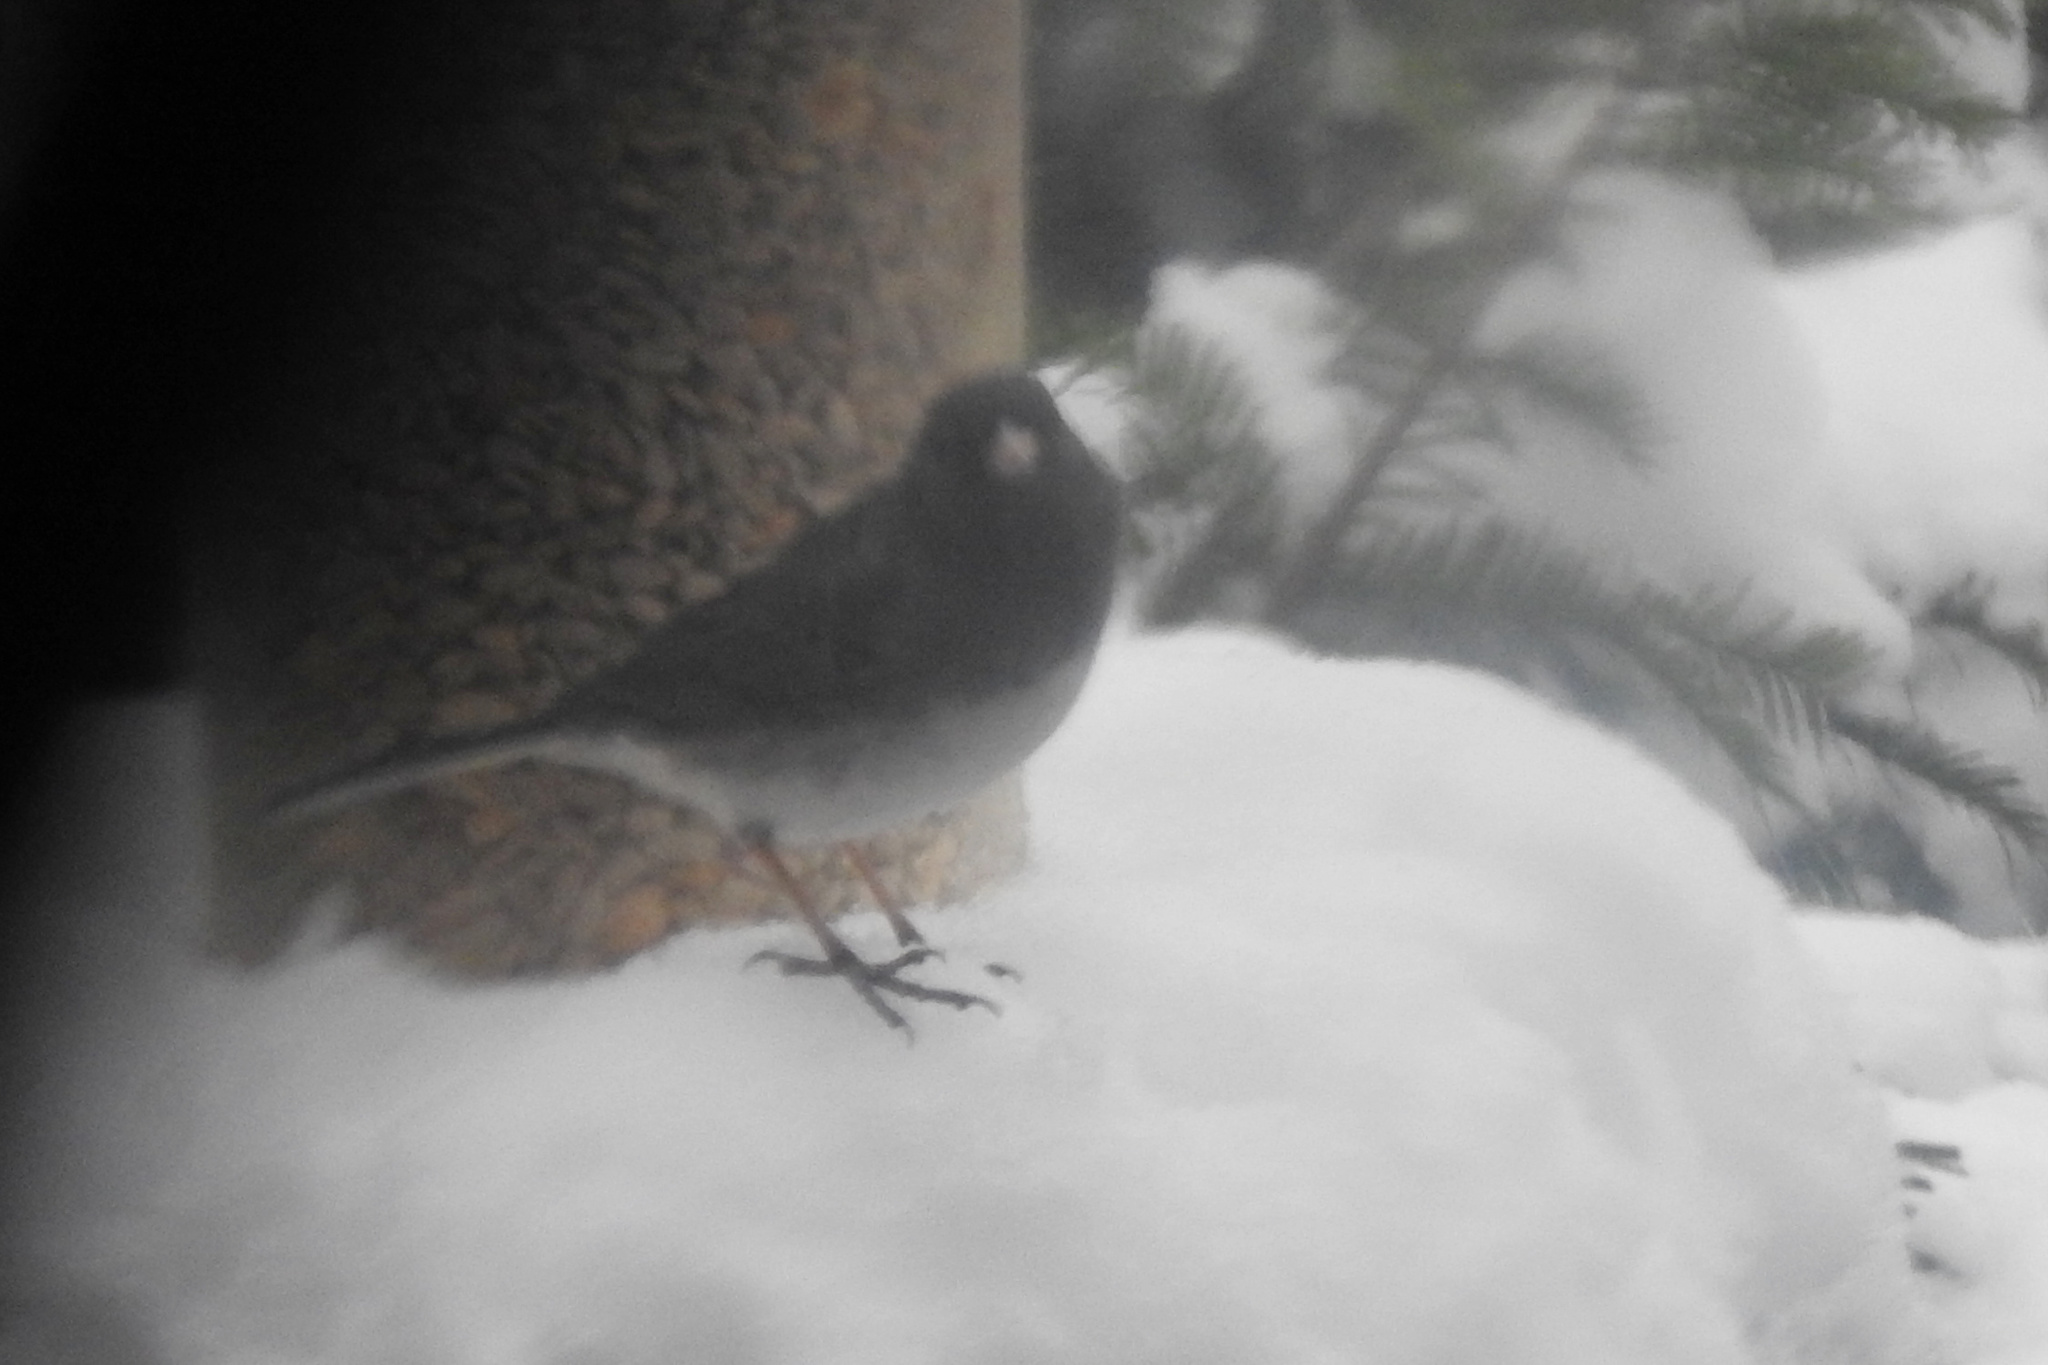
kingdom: Animalia
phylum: Chordata
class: Aves
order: Passeriformes
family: Passerellidae
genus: Junco
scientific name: Junco hyemalis
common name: Dark-eyed junco
